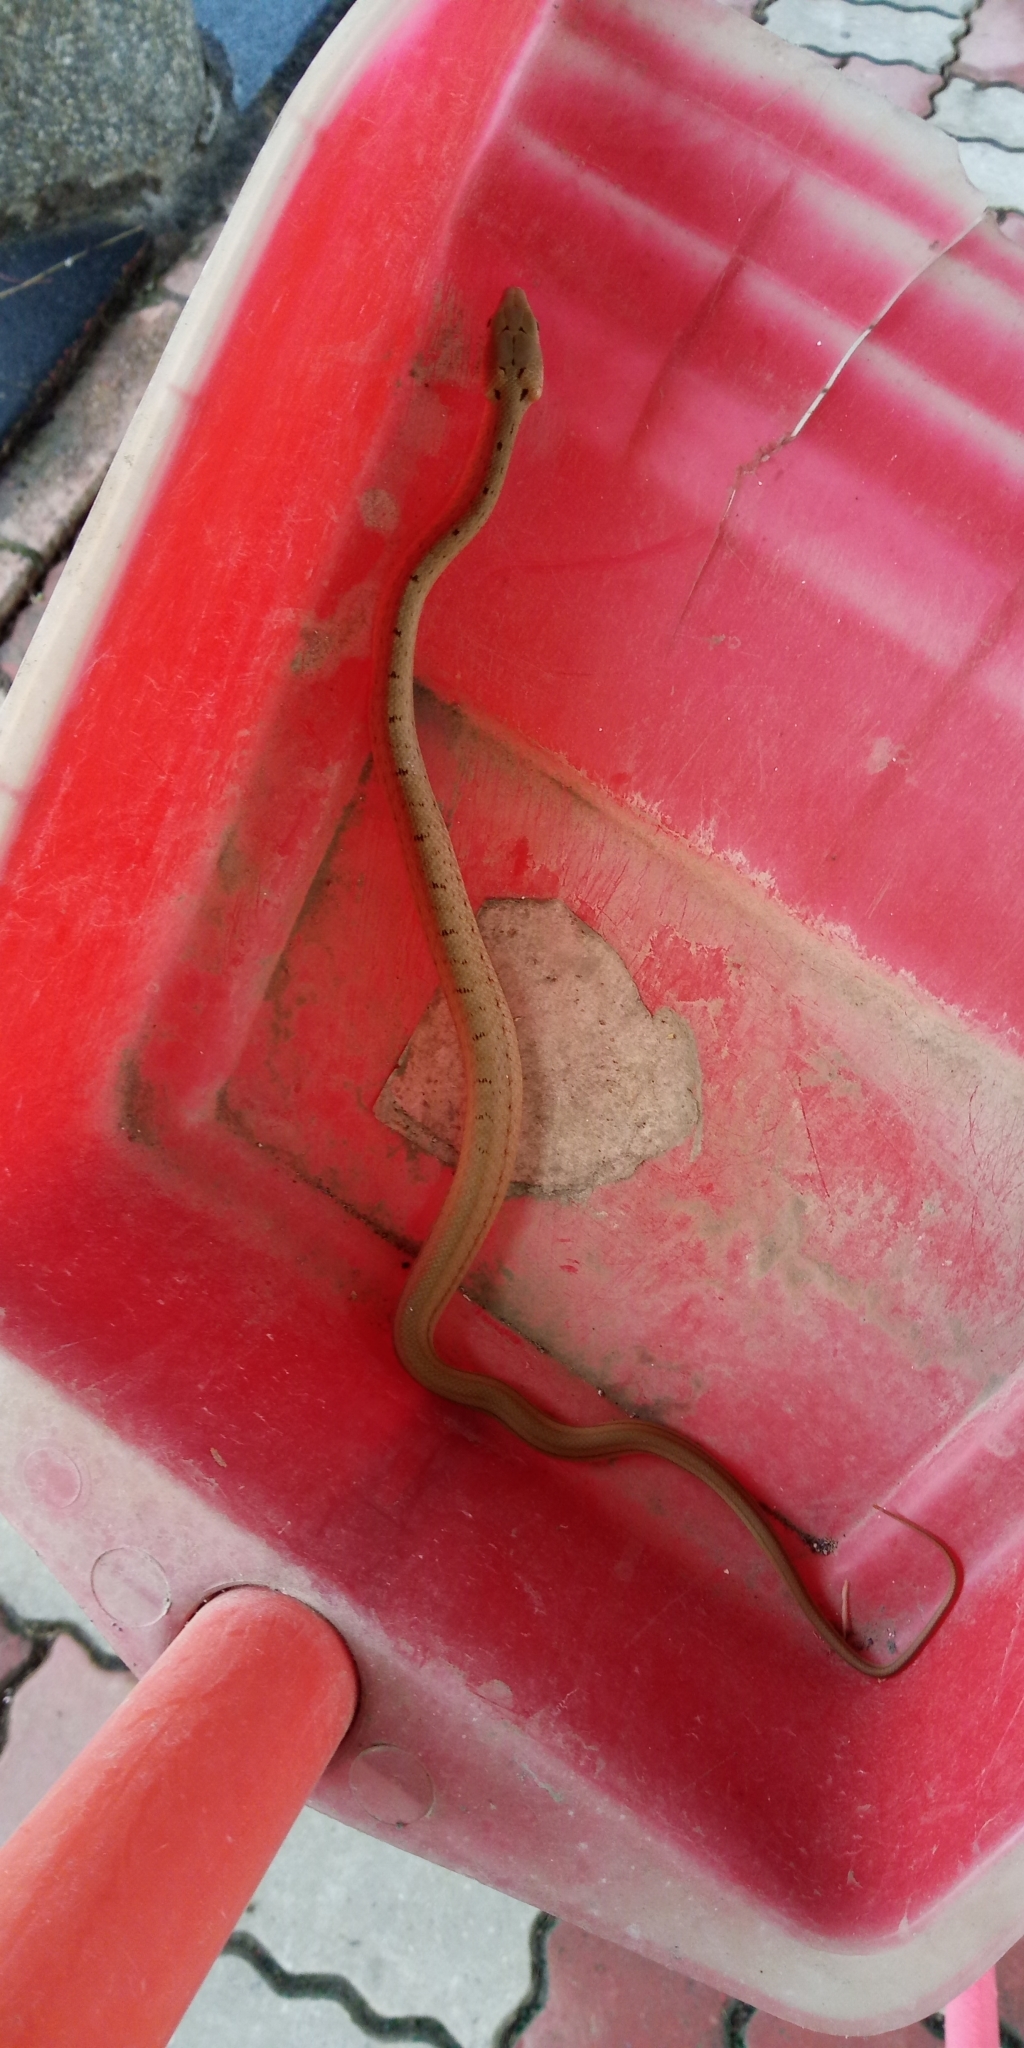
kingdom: Animalia
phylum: Chordata
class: Squamata
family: Colubridae
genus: Elaphe
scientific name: Elaphe carinata
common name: Taiwan stink snake
